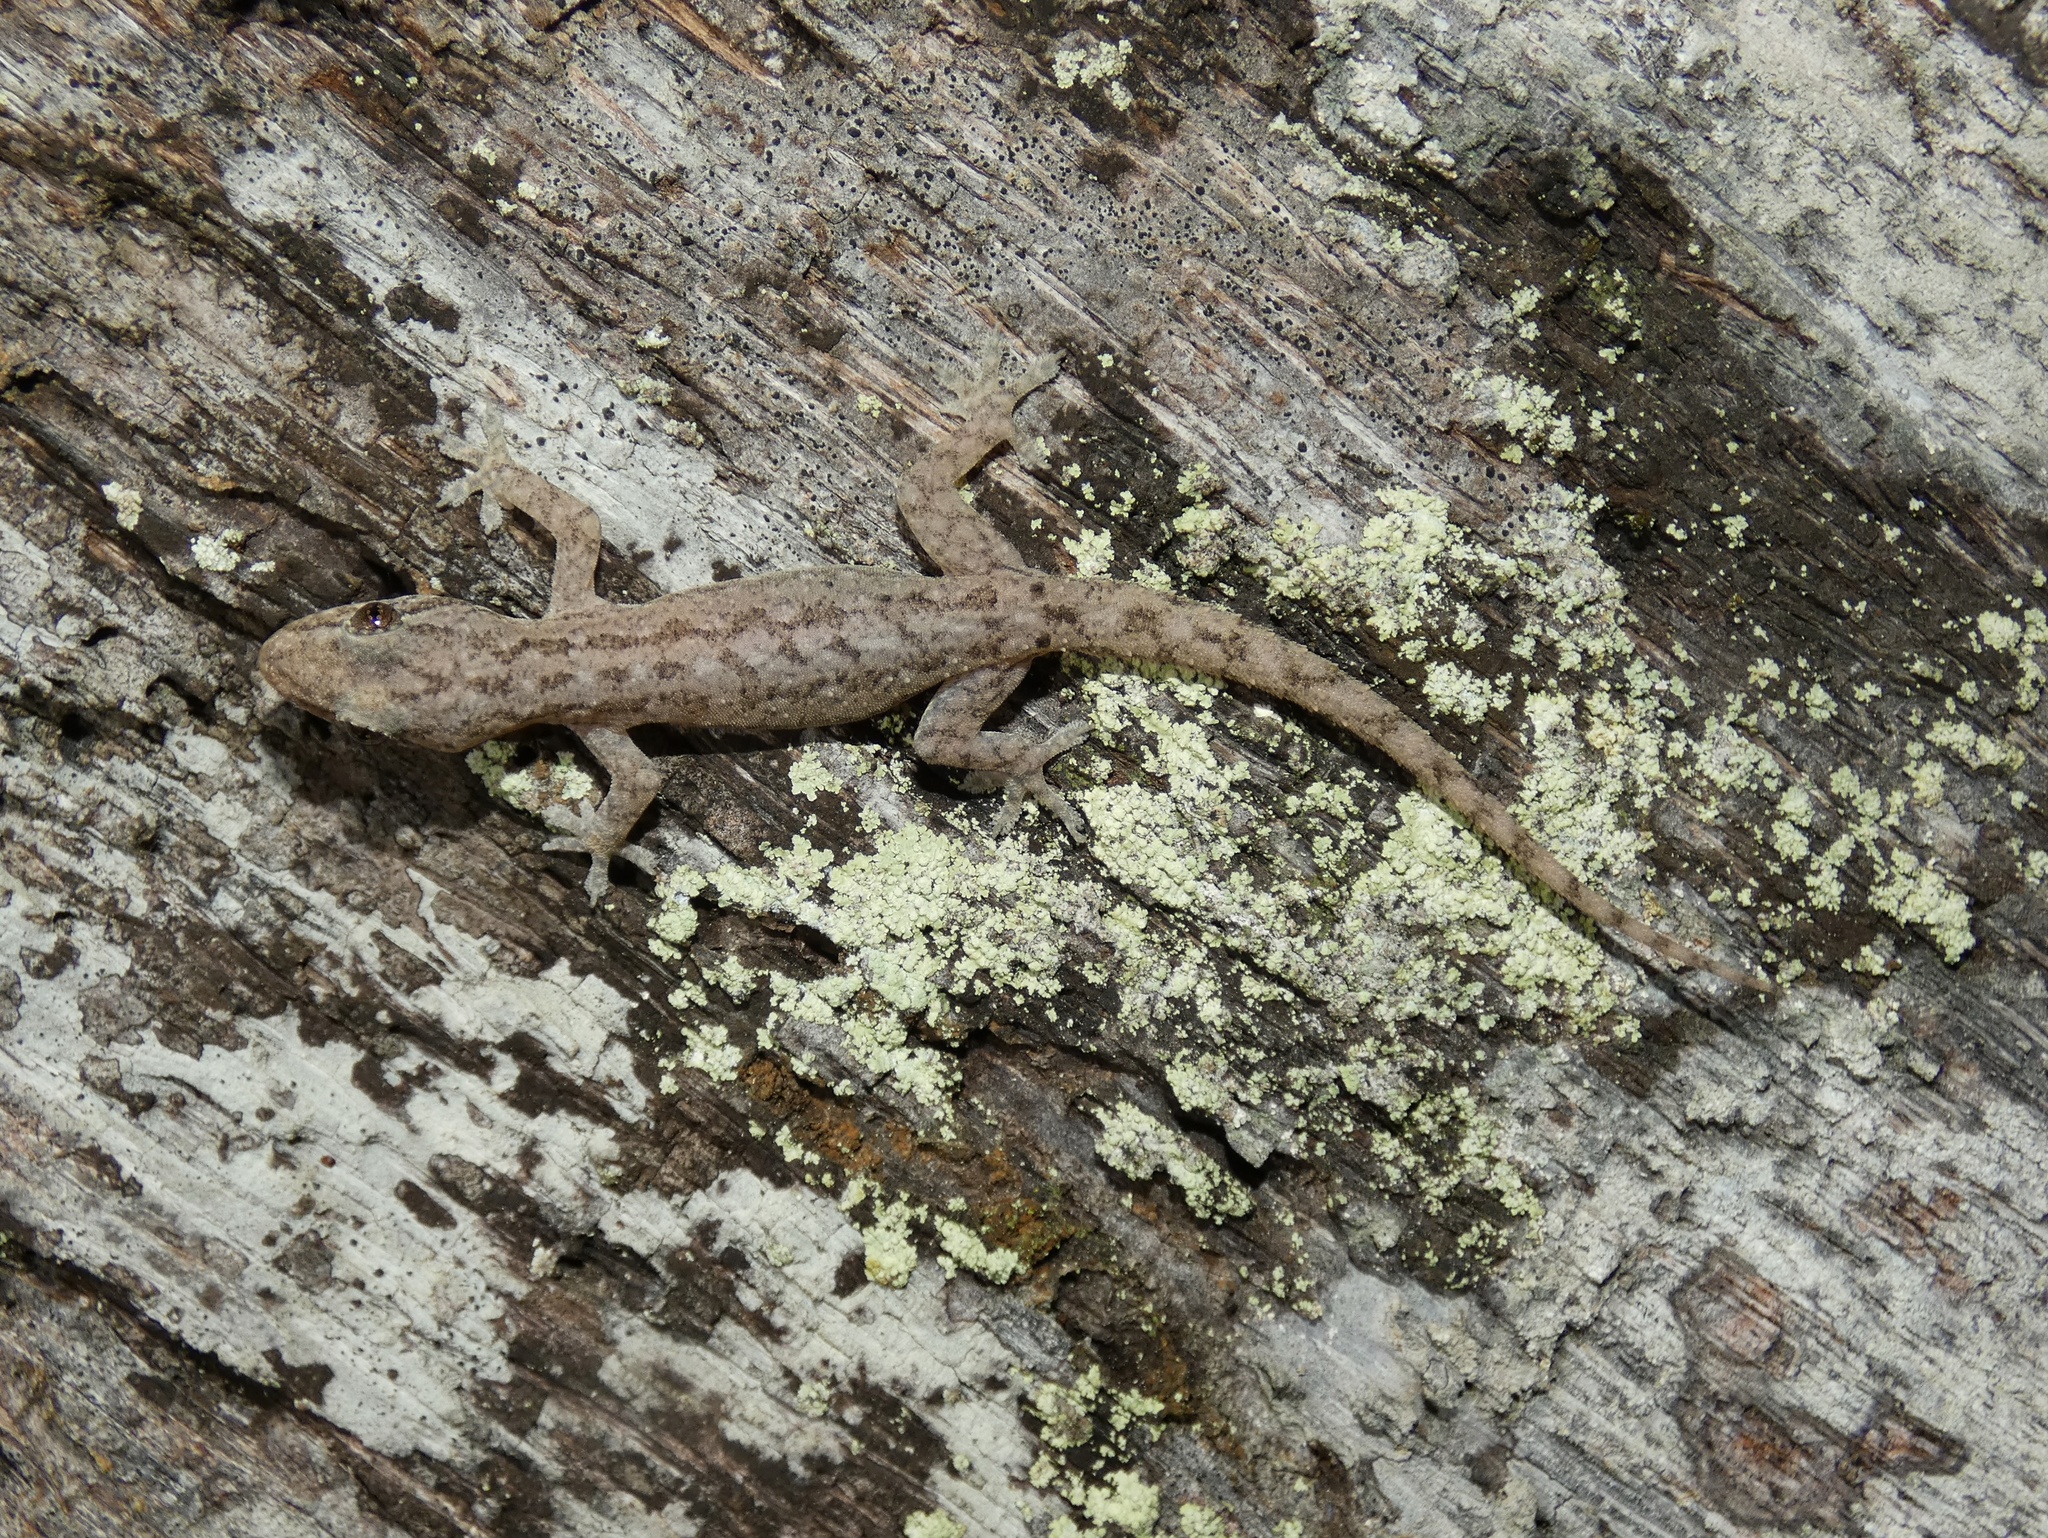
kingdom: Animalia
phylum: Chordata
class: Squamata
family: Gekkonidae
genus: Hemidactylus
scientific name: Hemidactylus frenatus
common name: Common house gecko
